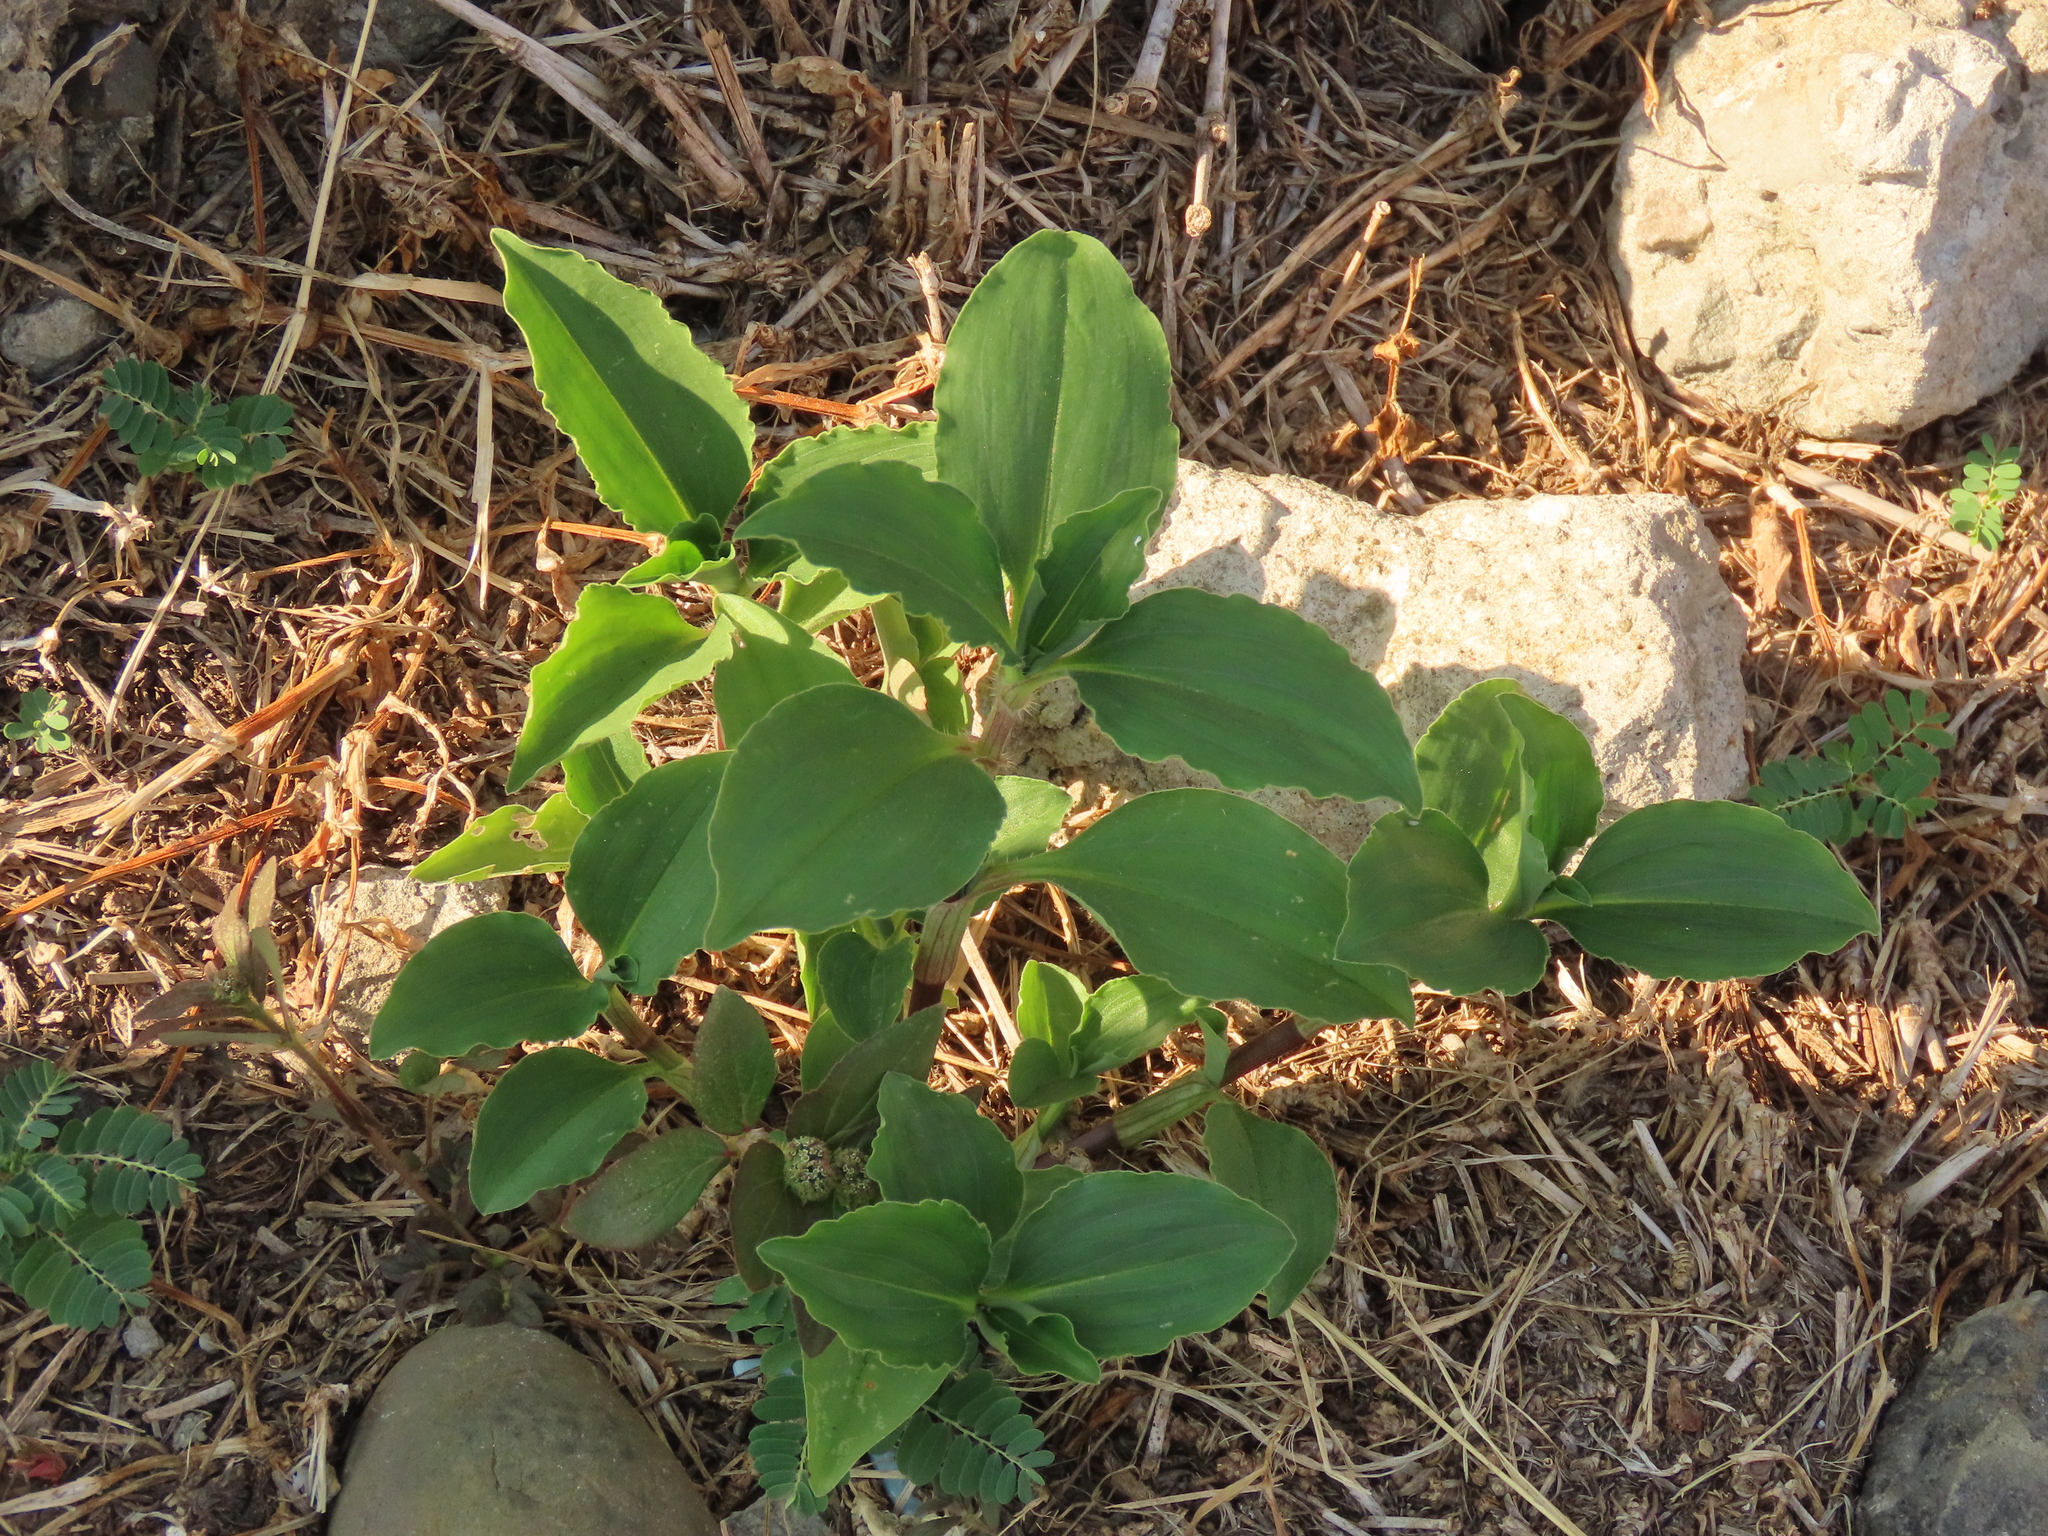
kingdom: Plantae
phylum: Tracheophyta
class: Liliopsida
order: Commelinales
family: Commelinaceae
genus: Commelina
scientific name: Commelina benghalensis
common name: Jio
